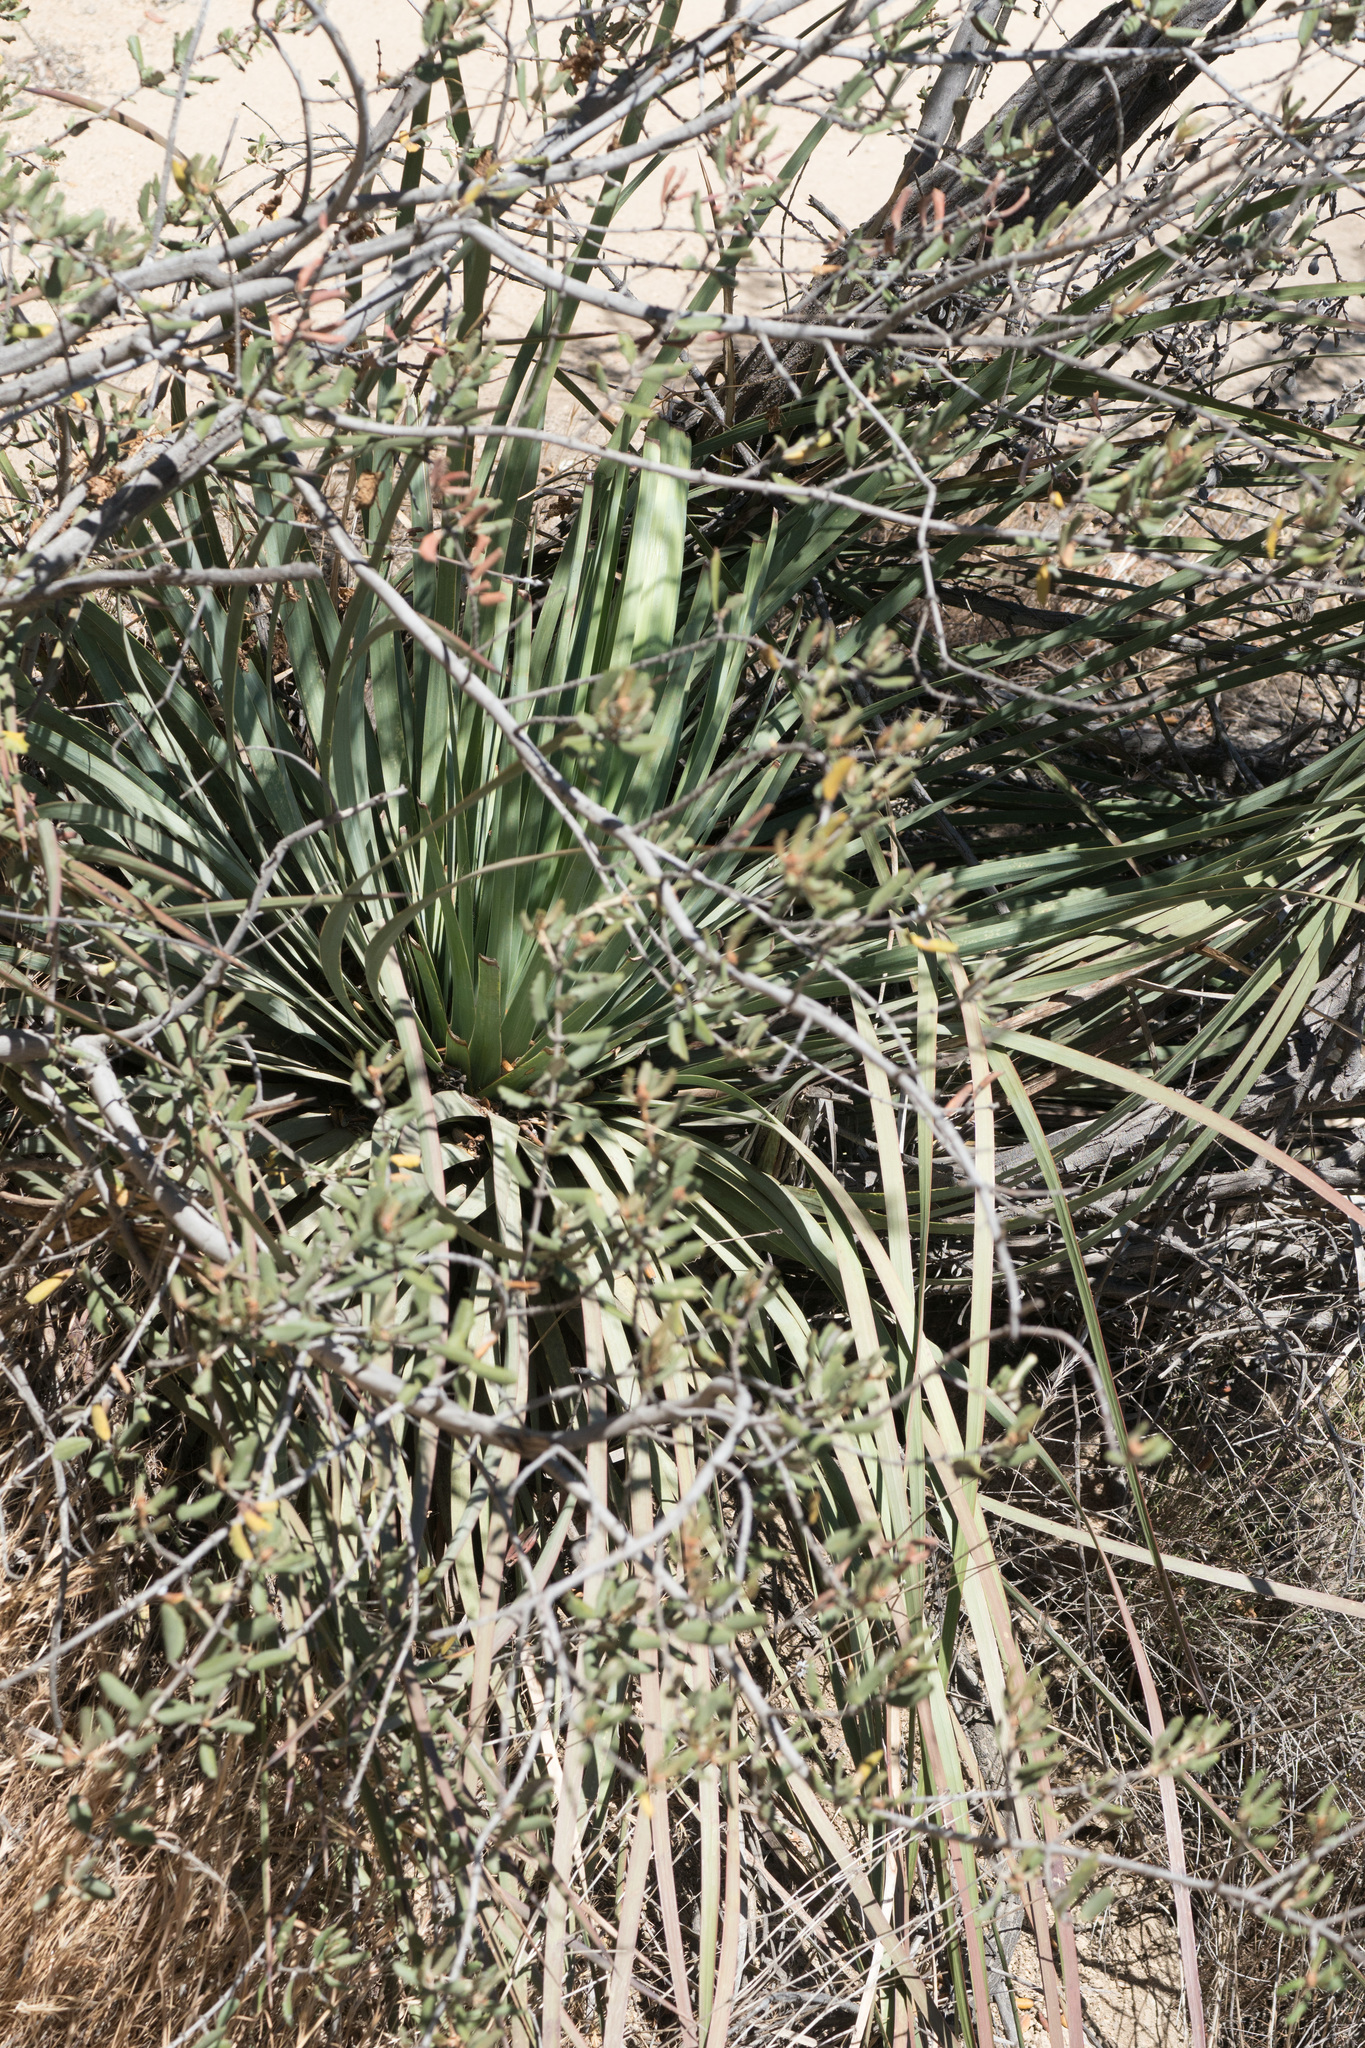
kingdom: Plantae
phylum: Tracheophyta
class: Liliopsida
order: Asparagales
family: Asparagaceae
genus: Hesperoyucca
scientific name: Hesperoyucca whipplei
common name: Our lord's-candle
